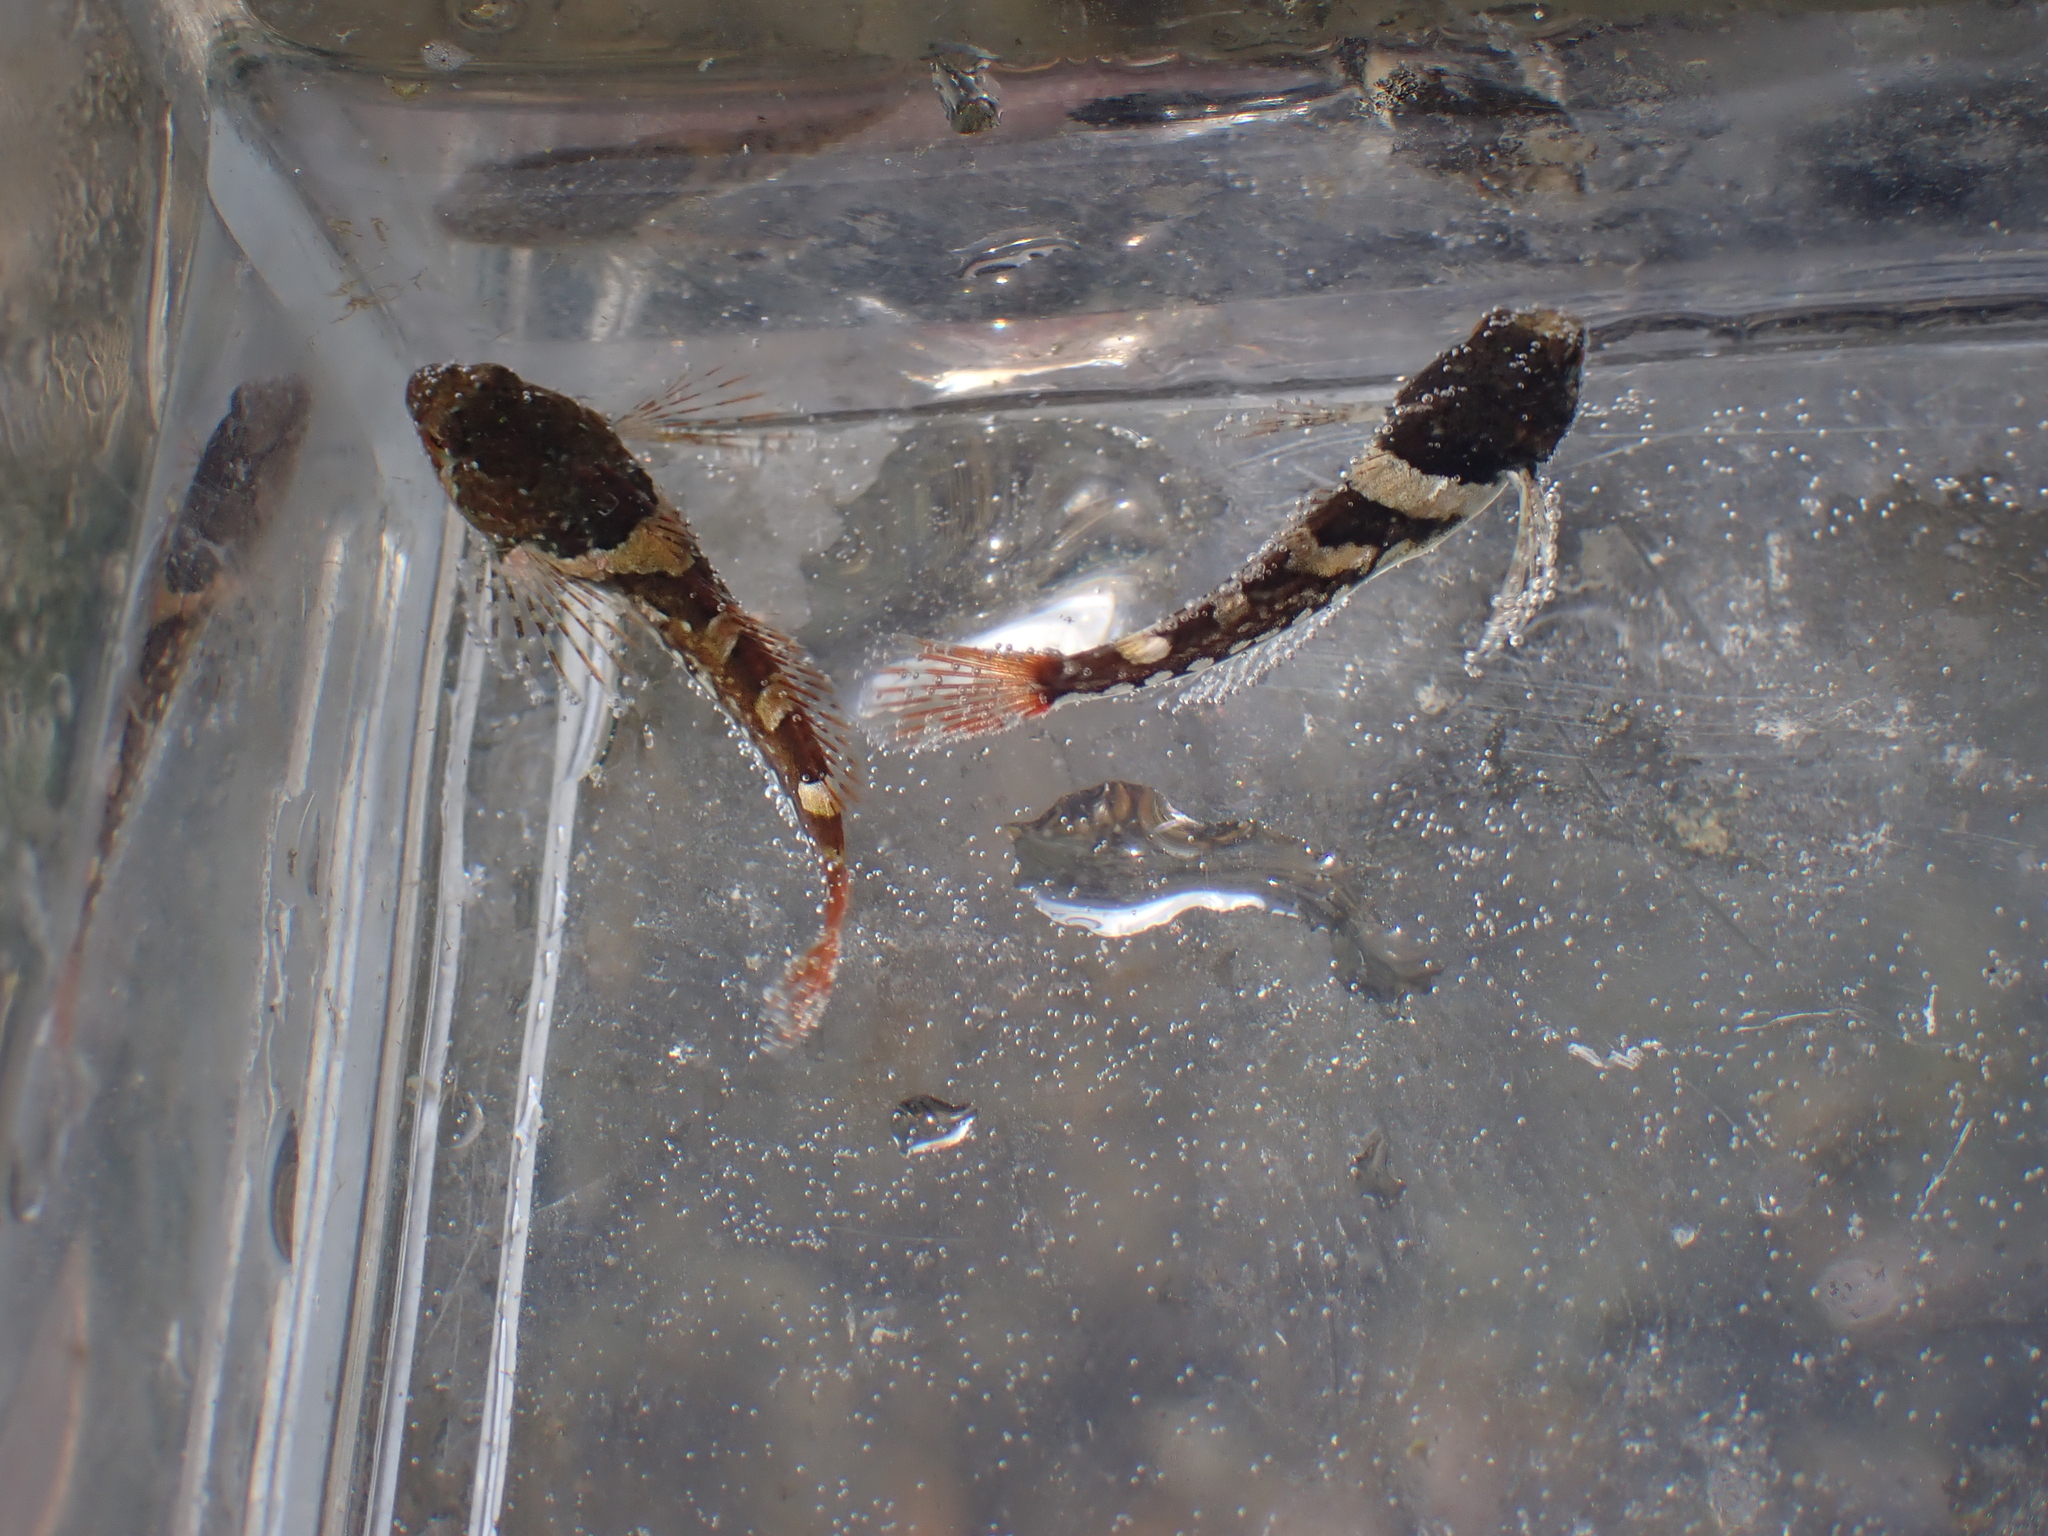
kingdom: Animalia
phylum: Chordata
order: Scorpaeniformes
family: Cottidae
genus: Oligocottus
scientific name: Oligocottus maculosus
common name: Tidepool sculpin
